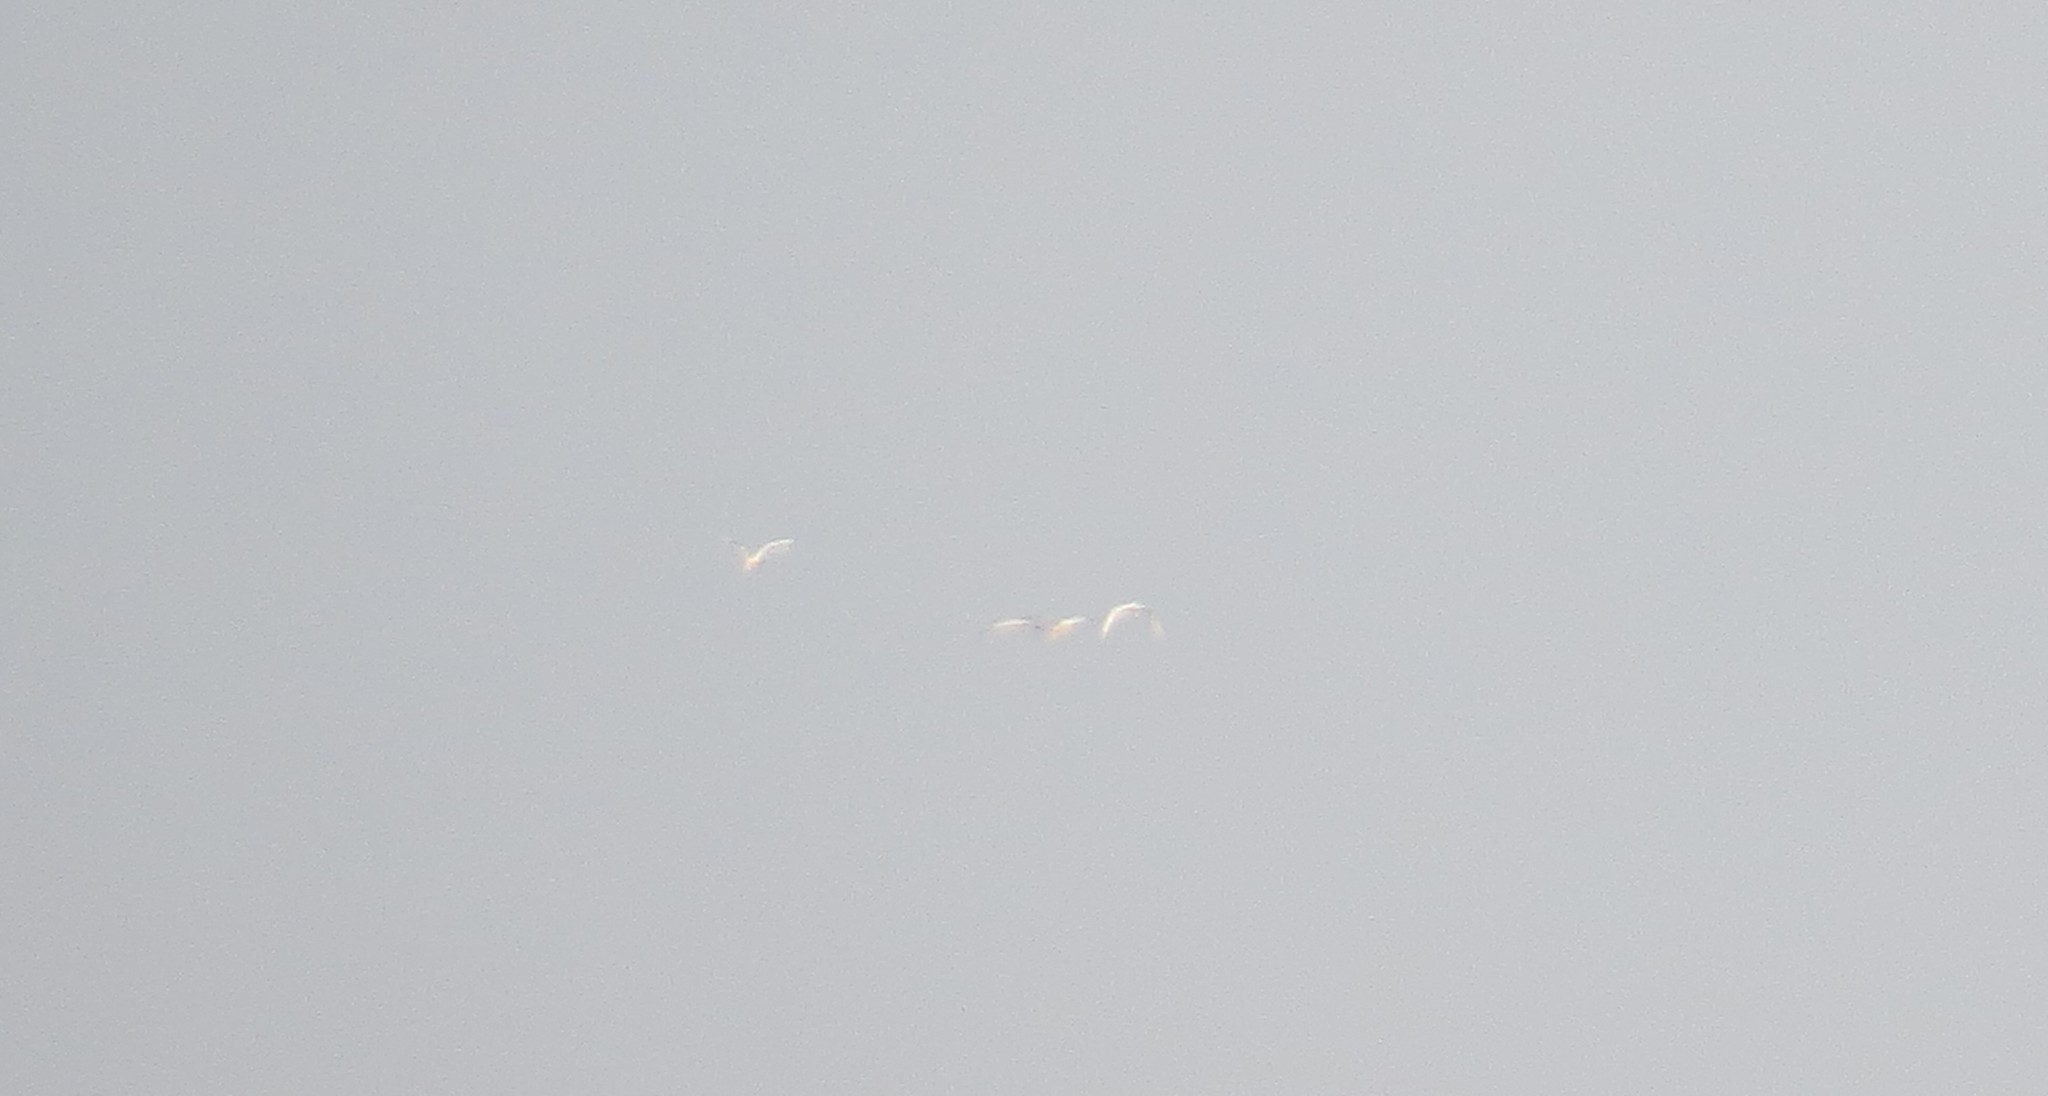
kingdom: Animalia
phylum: Chordata
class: Aves
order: Pelecaniformes
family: Ardeidae
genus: Ardea
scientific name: Ardea alba
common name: Great egret
